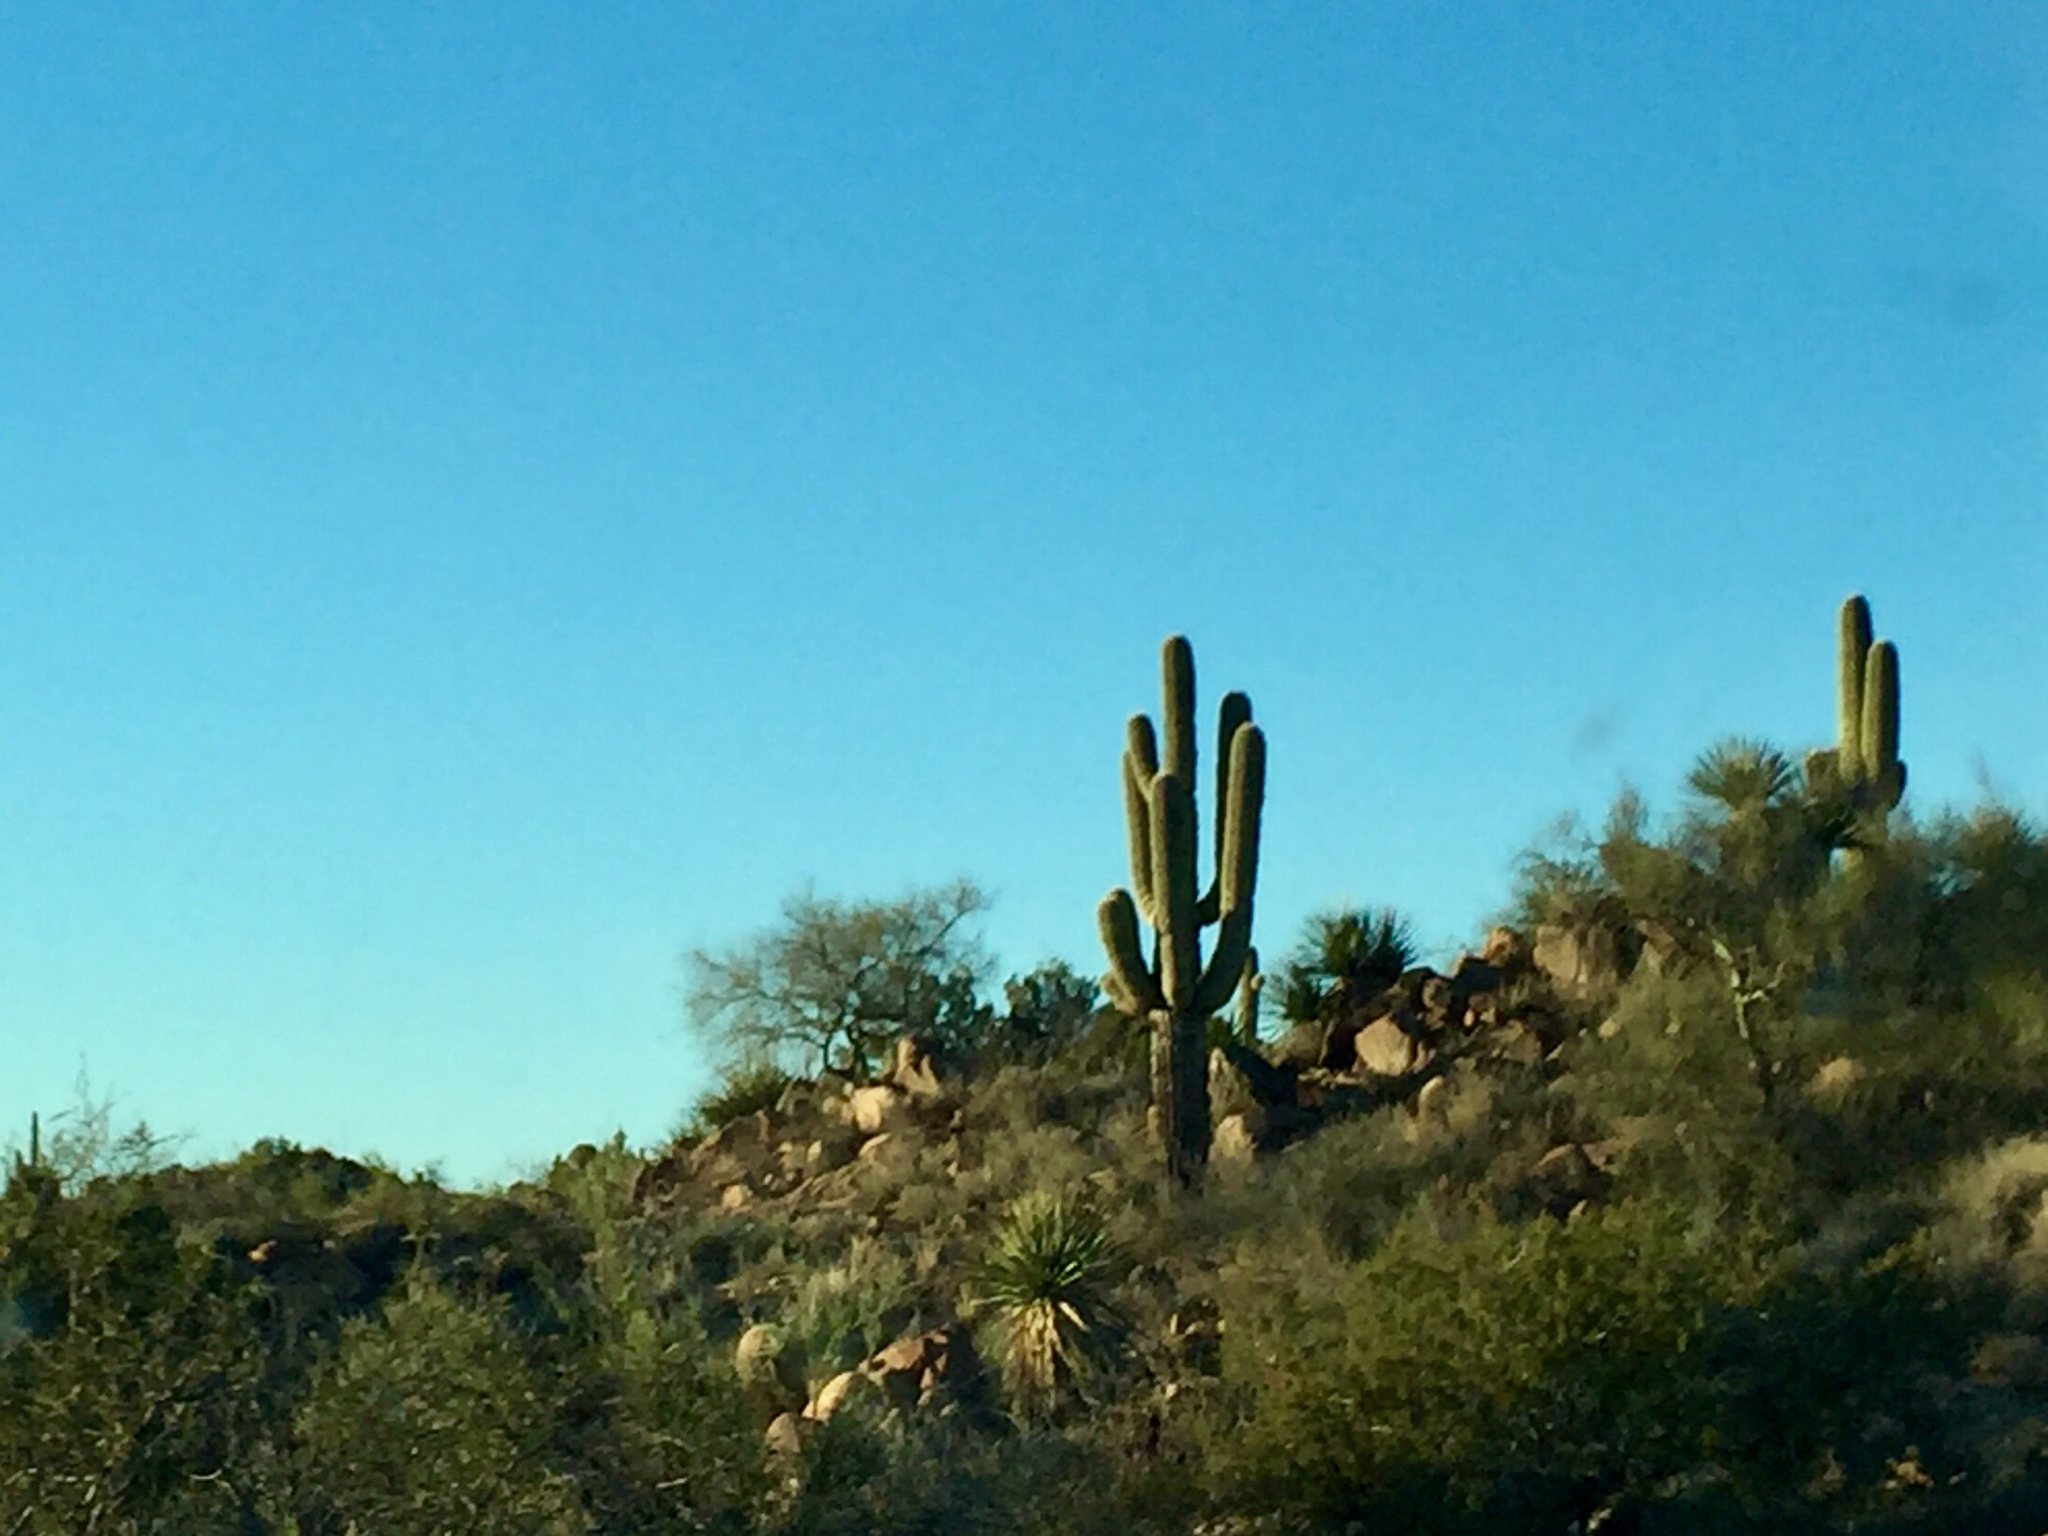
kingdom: Plantae
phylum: Tracheophyta
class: Magnoliopsida
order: Caryophyllales
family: Cactaceae
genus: Carnegiea
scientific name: Carnegiea gigantea
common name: Saguaro
